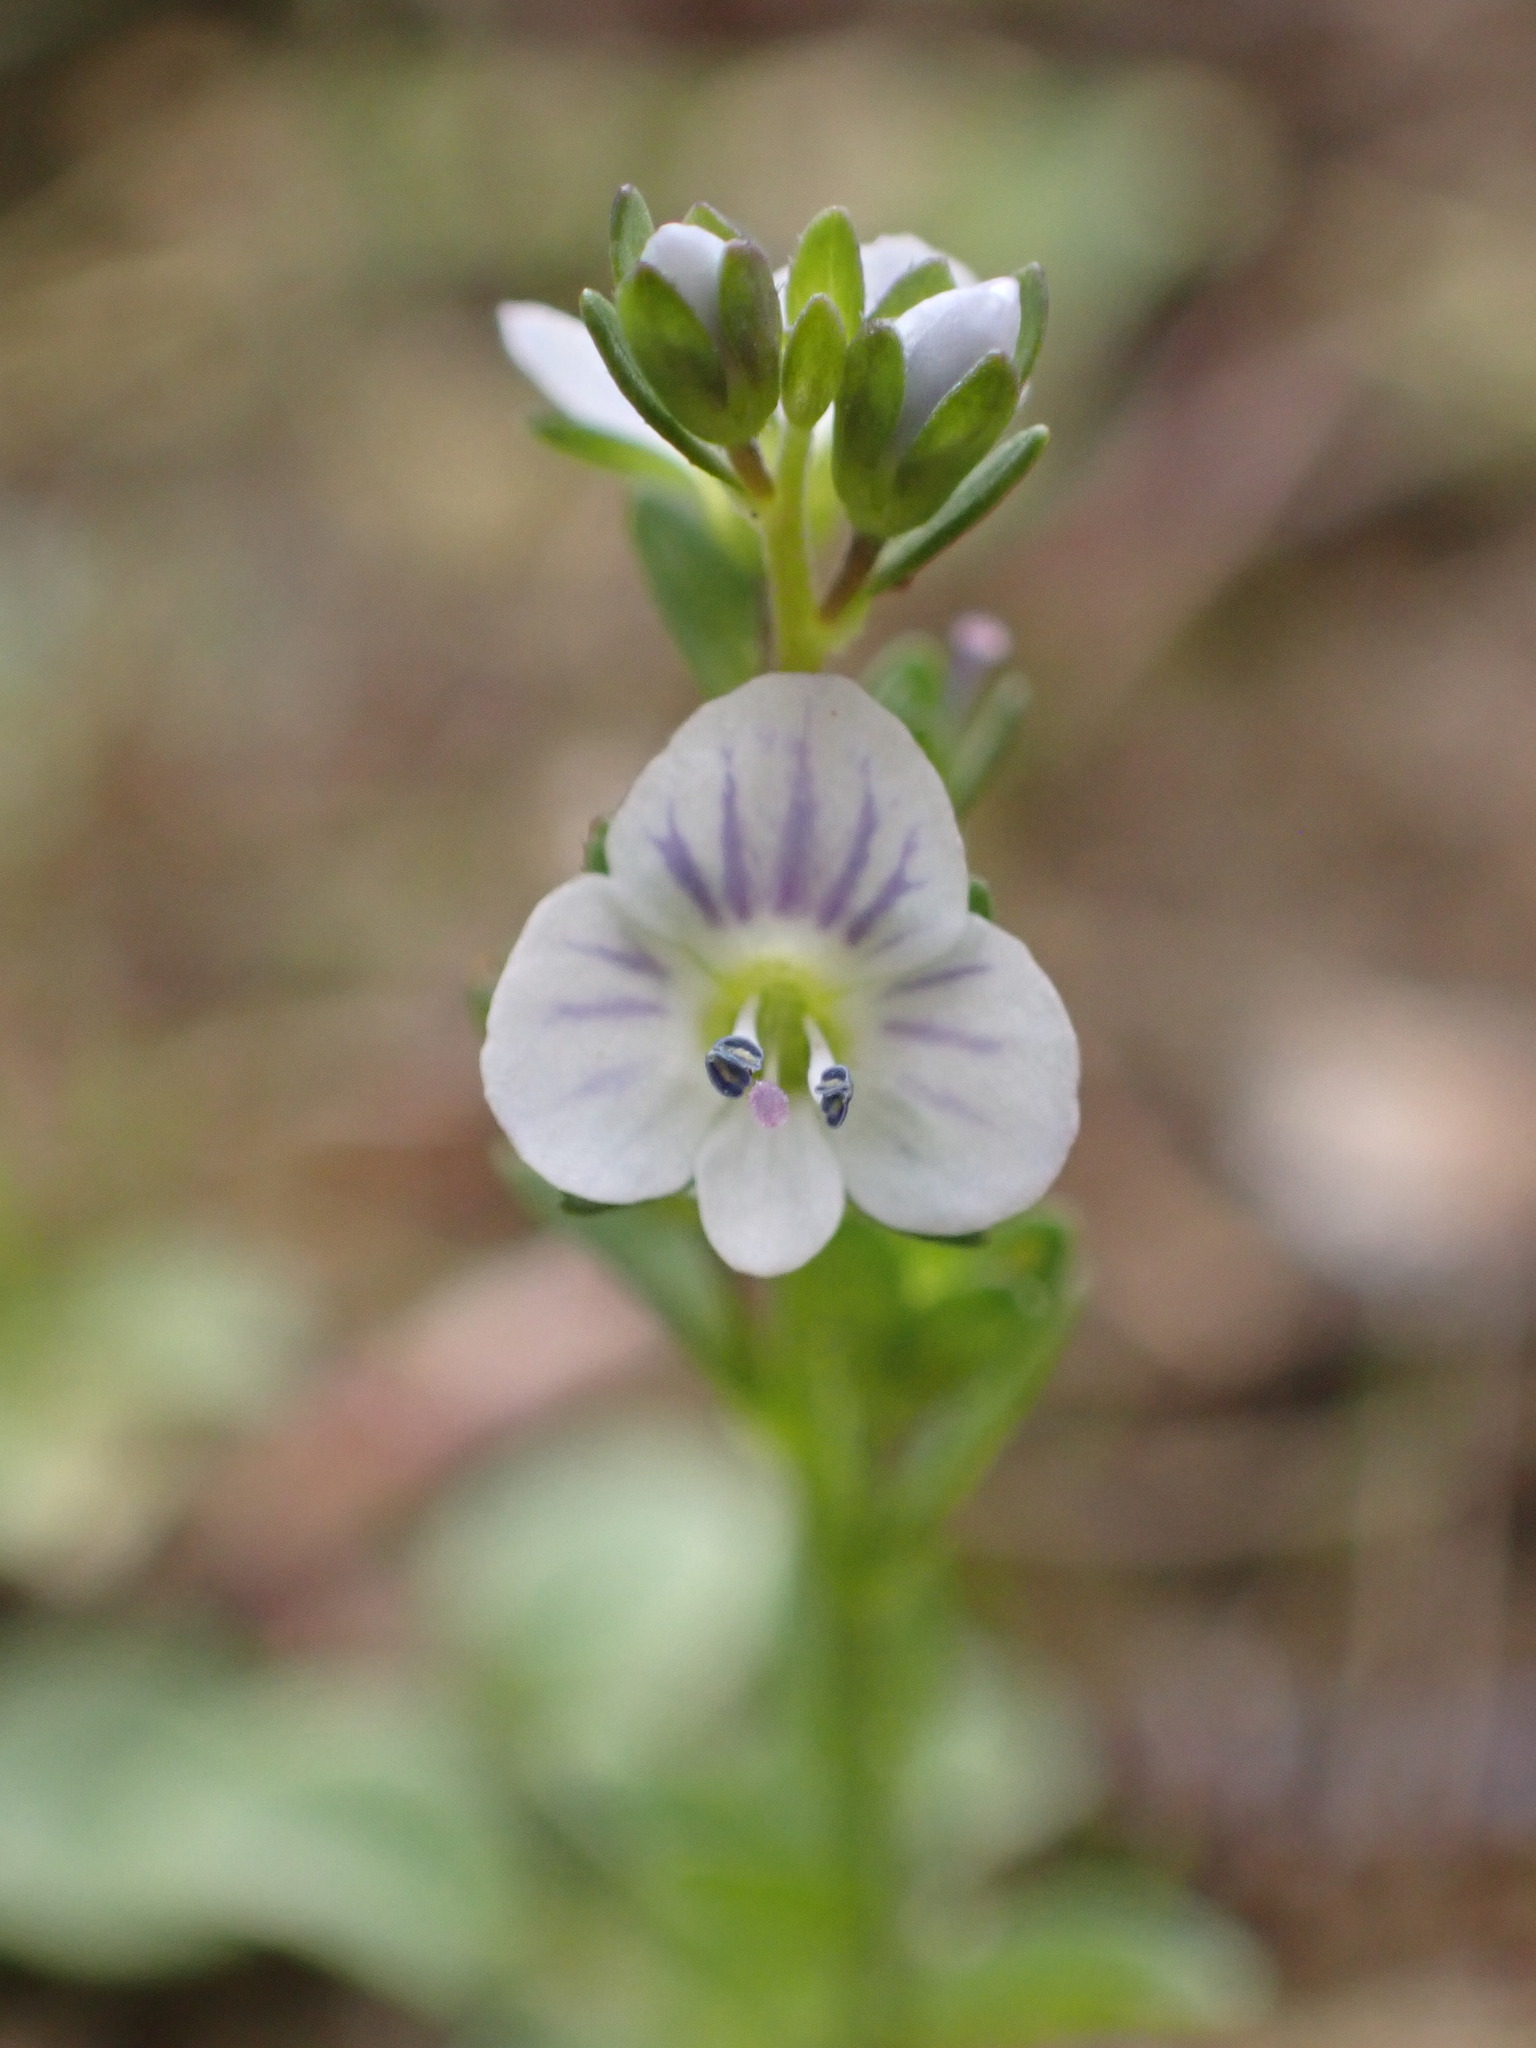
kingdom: Plantae
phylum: Tracheophyta
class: Magnoliopsida
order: Lamiales
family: Plantaginaceae
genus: Veronica
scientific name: Veronica serpyllifolia
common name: Thyme-leaved speedwell
